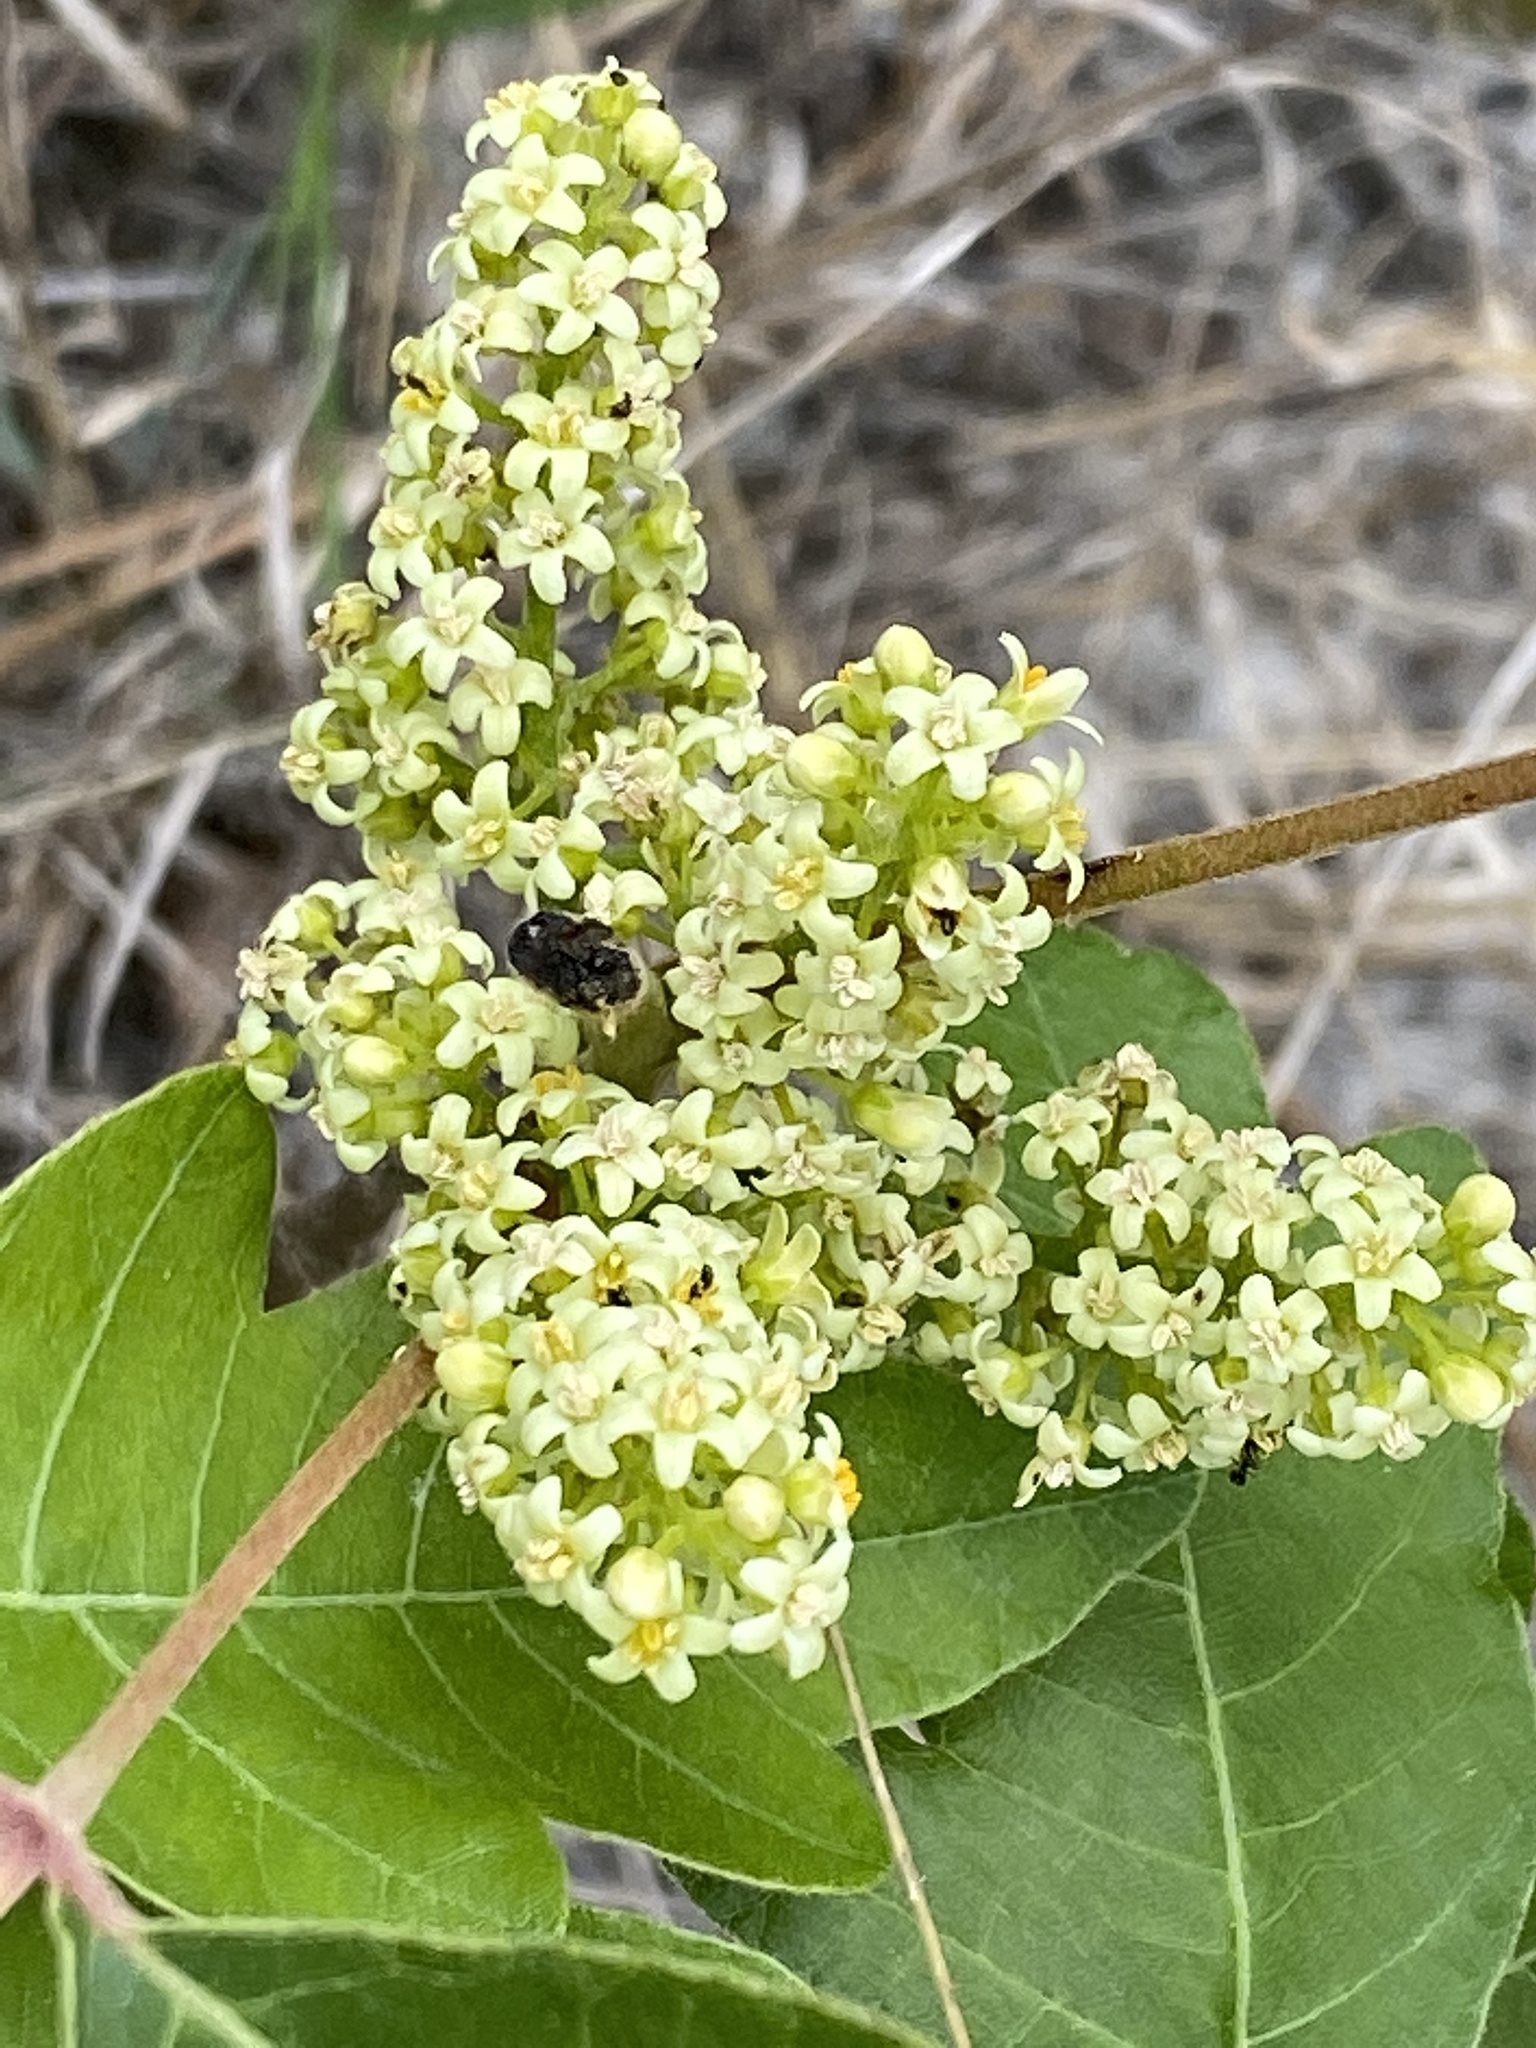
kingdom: Plantae
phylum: Tracheophyta
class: Magnoliopsida
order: Sapindales
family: Anacardiaceae
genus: Toxicodendron
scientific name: Toxicodendron pubescens
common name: Eastern poison-oak
